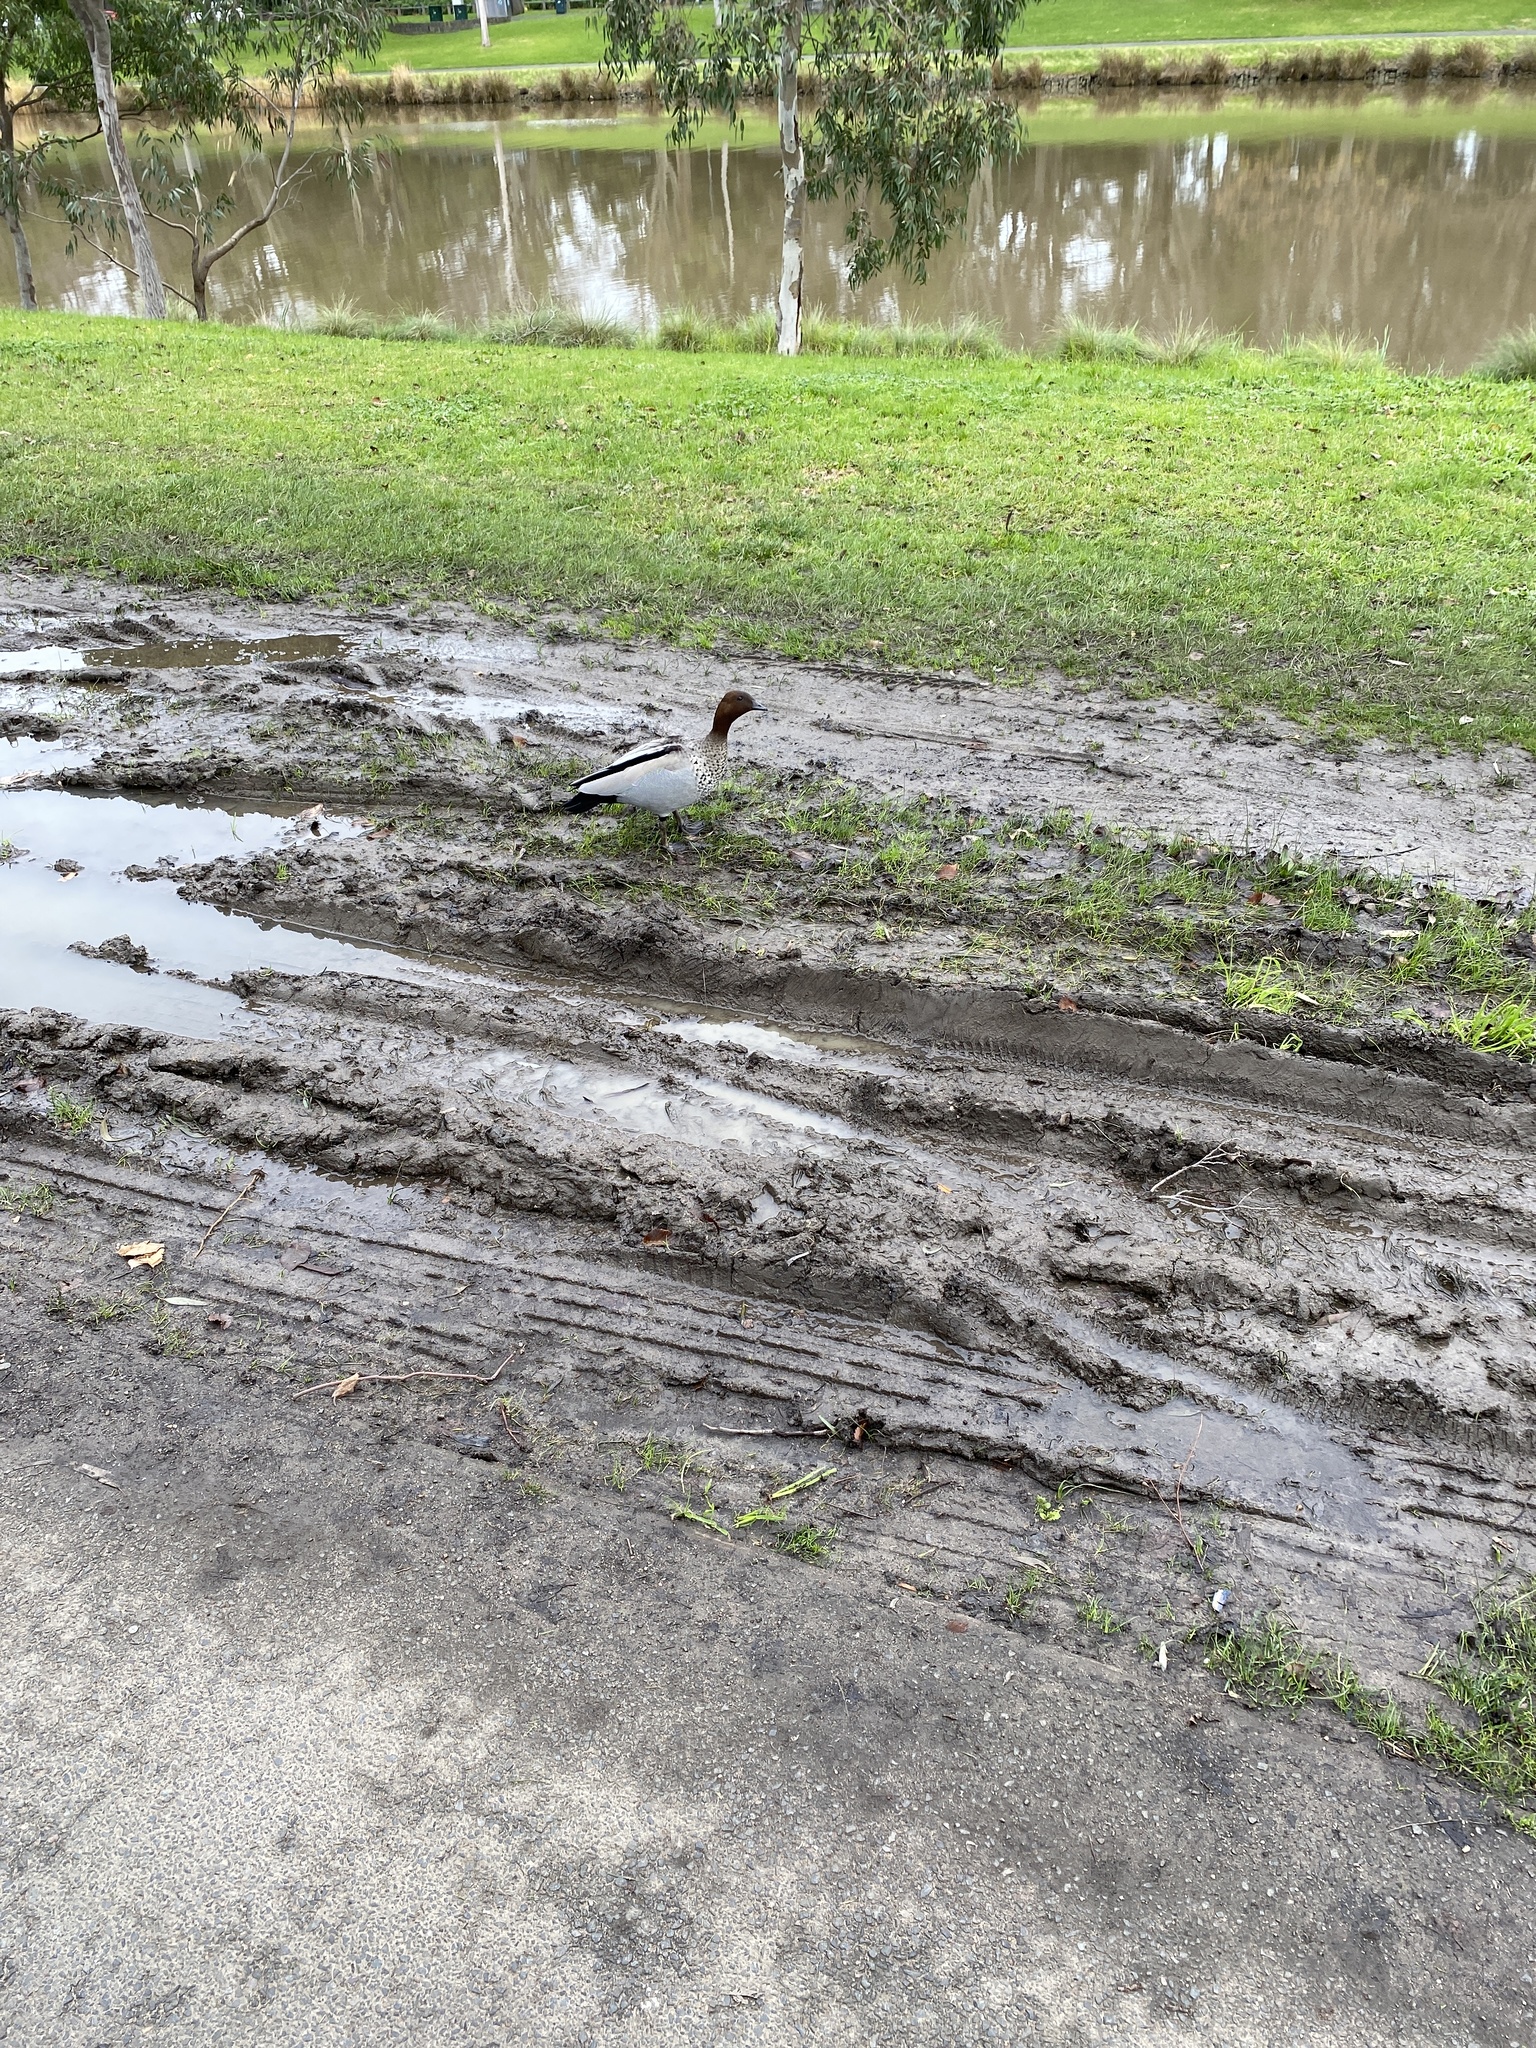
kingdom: Animalia
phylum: Chordata
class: Aves
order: Anseriformes
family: Anatidae
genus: Chenonetta
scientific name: Chenonetta jubata
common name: Maned duck
